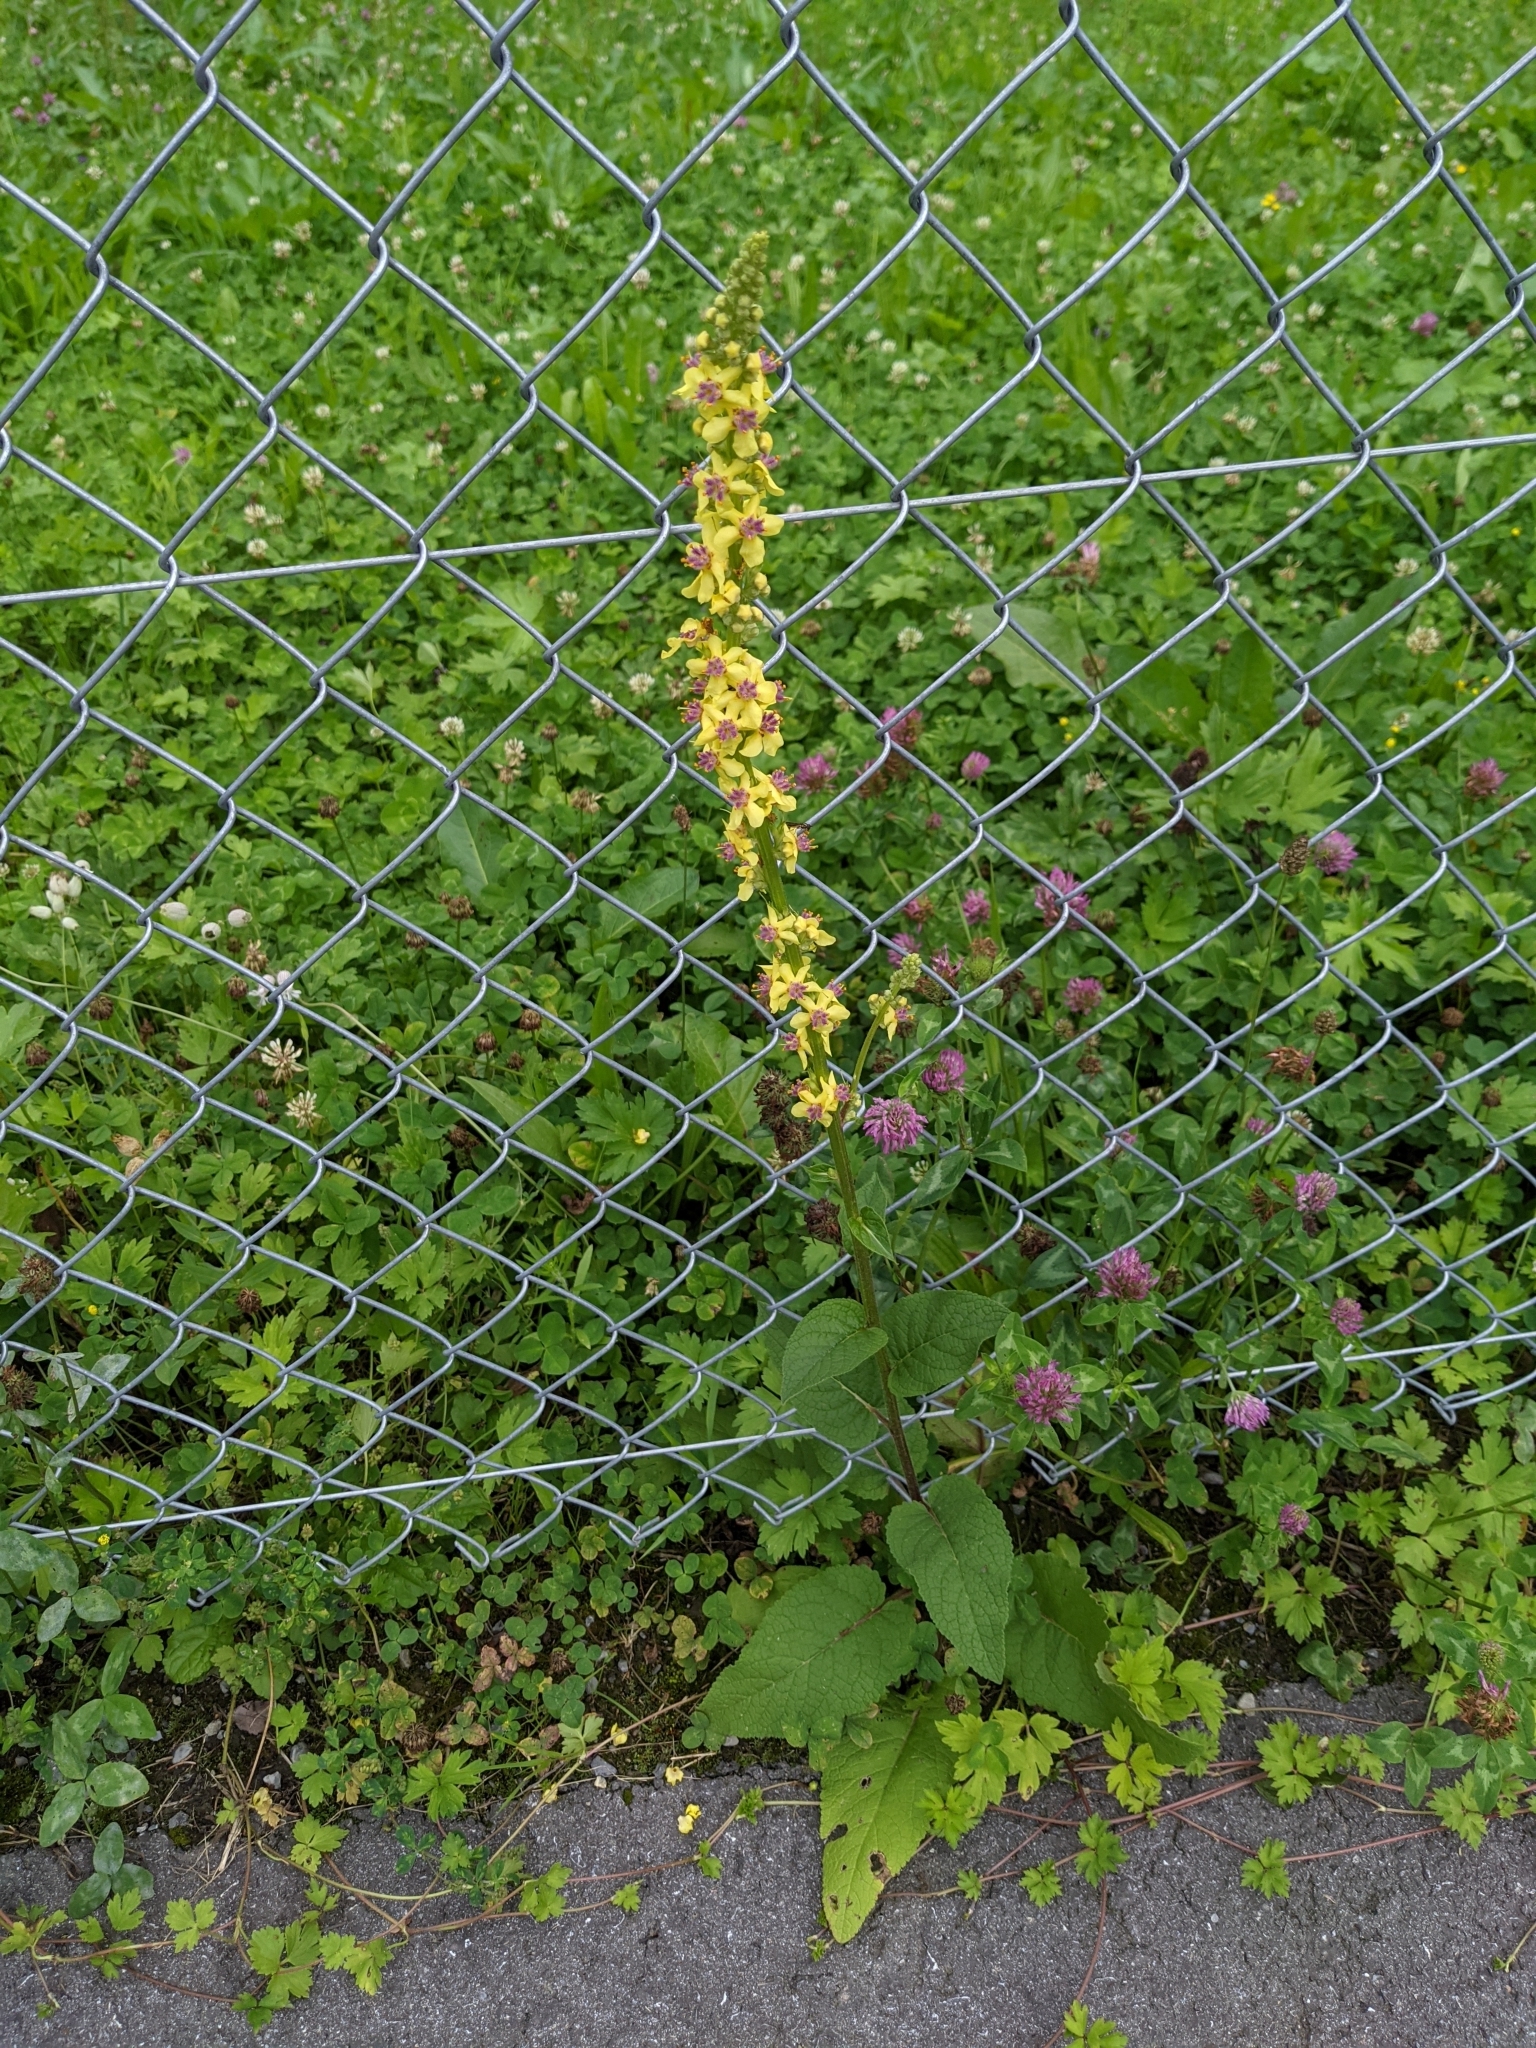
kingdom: Plantae
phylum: Tracheophyta
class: Magnoliopsida
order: Lamiales
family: Scrophulariaceae
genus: Verbascum
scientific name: Verbascum nigrum
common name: Dark mullein
